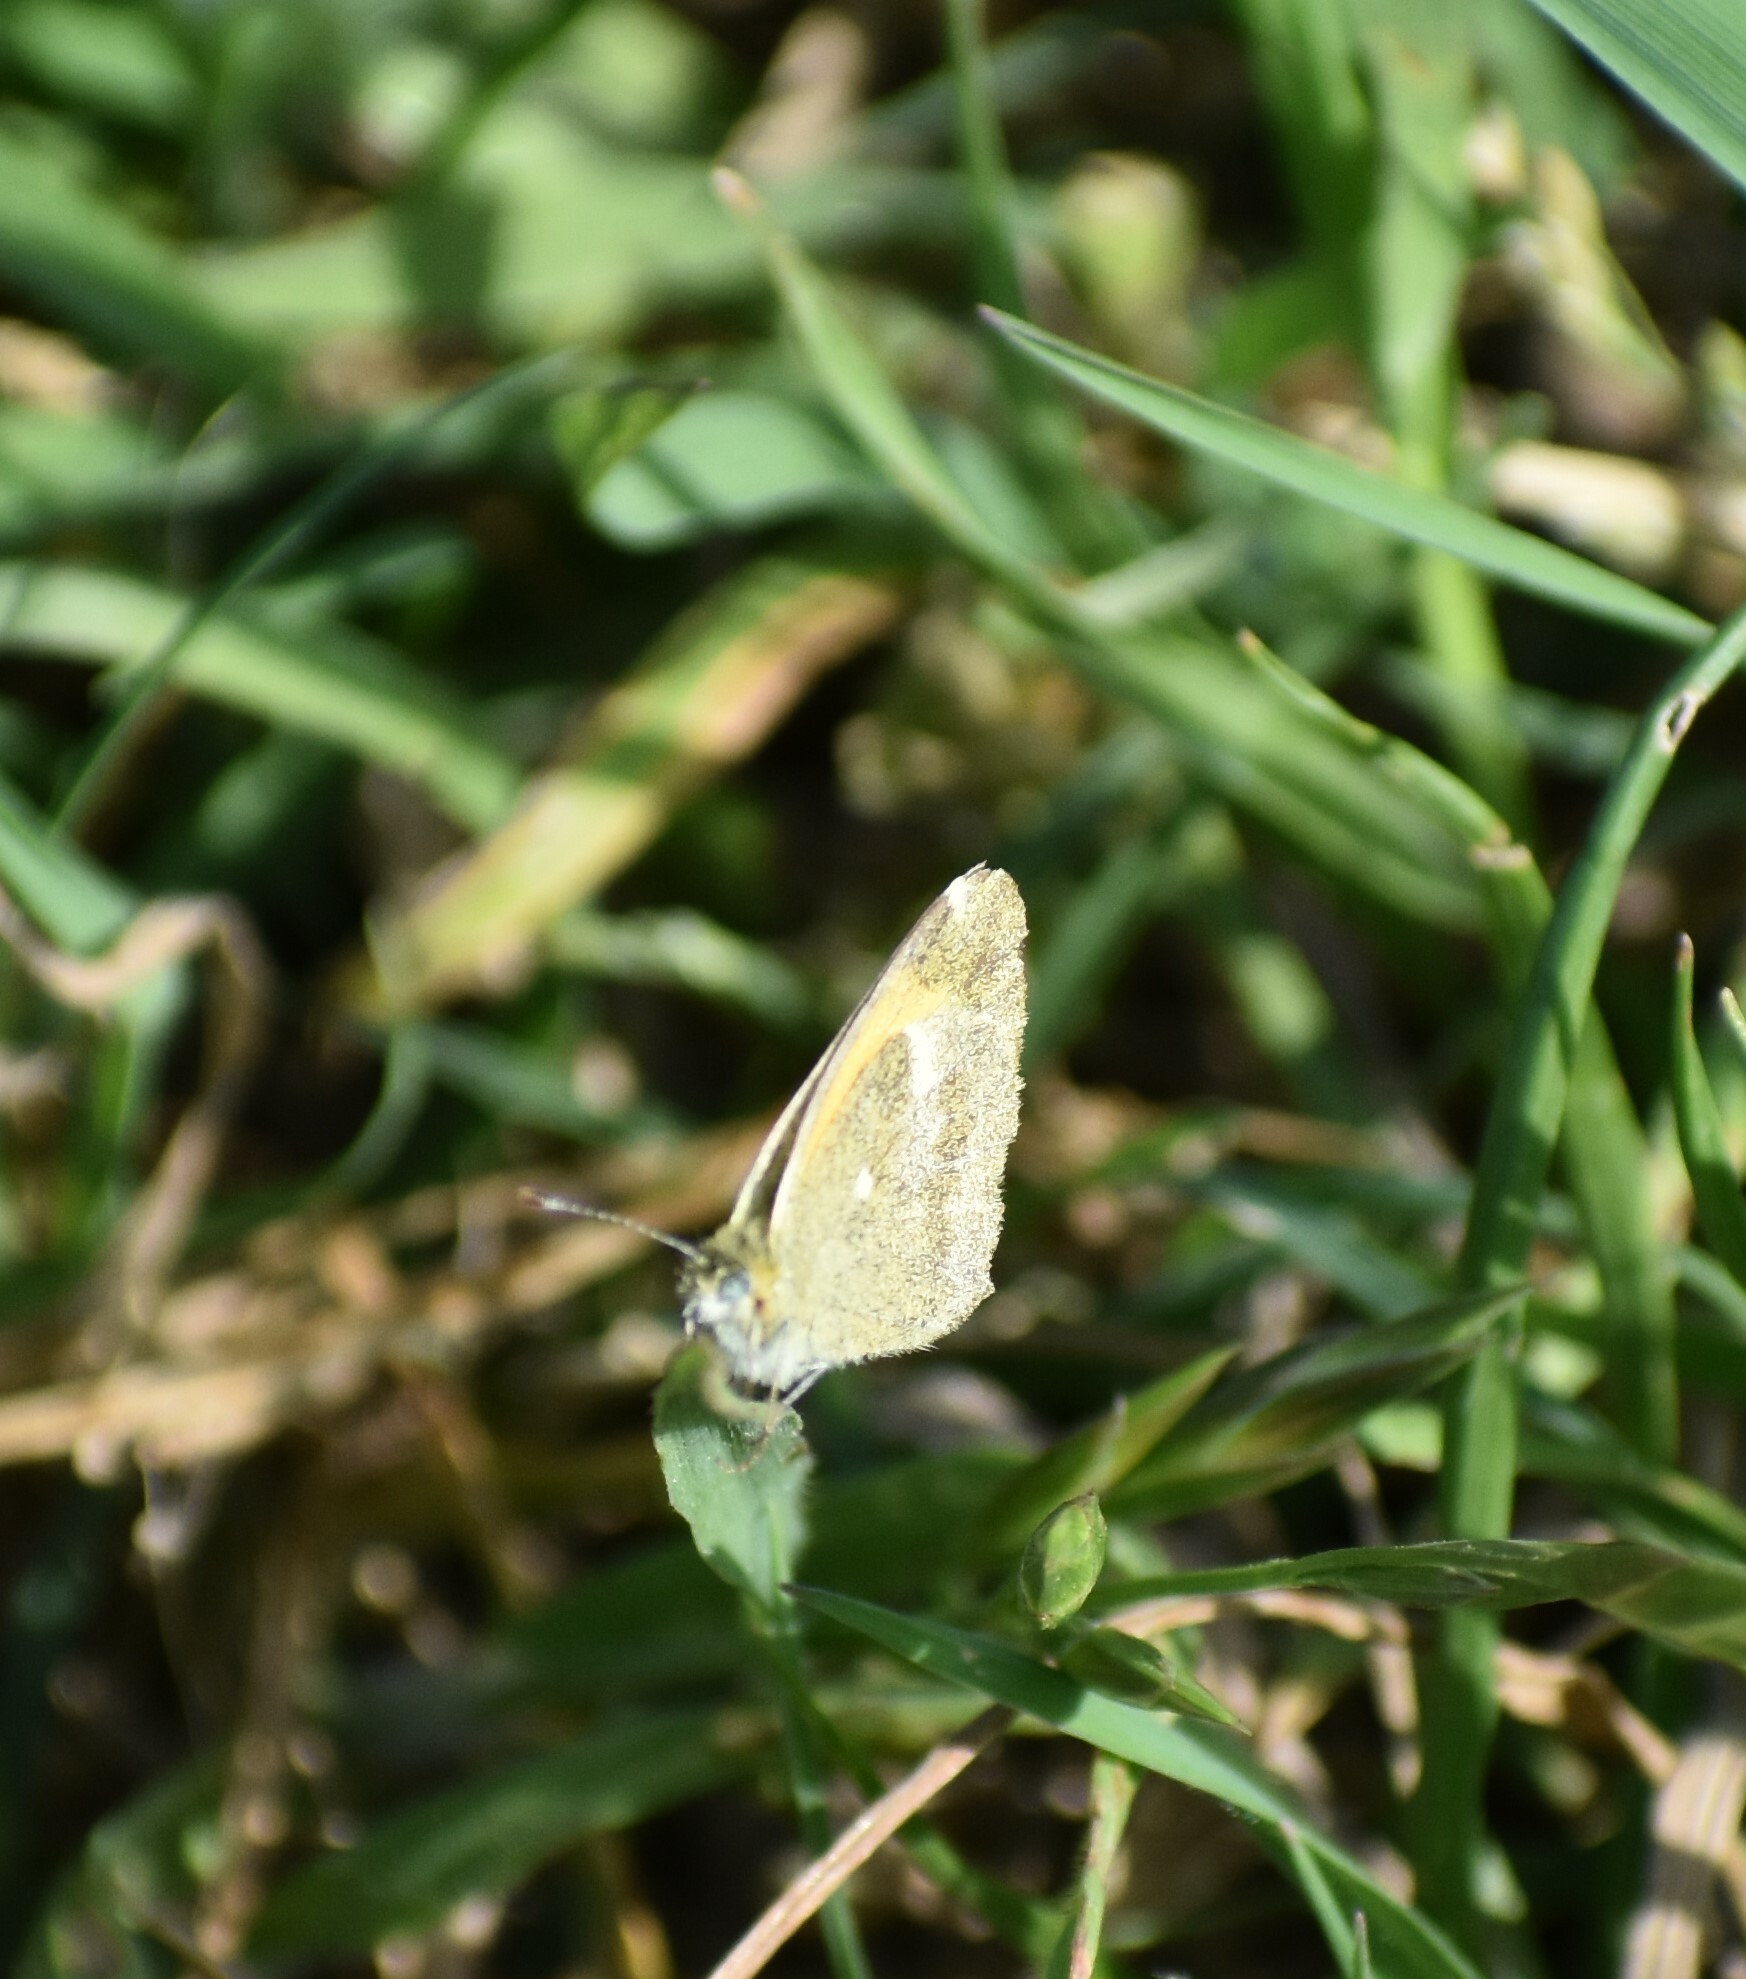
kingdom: Animalia
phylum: Arthropoda
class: Insecta
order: Lepidoptera
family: Pieridae
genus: Nathalis
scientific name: Nathalis iole
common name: Dainty sulphur
